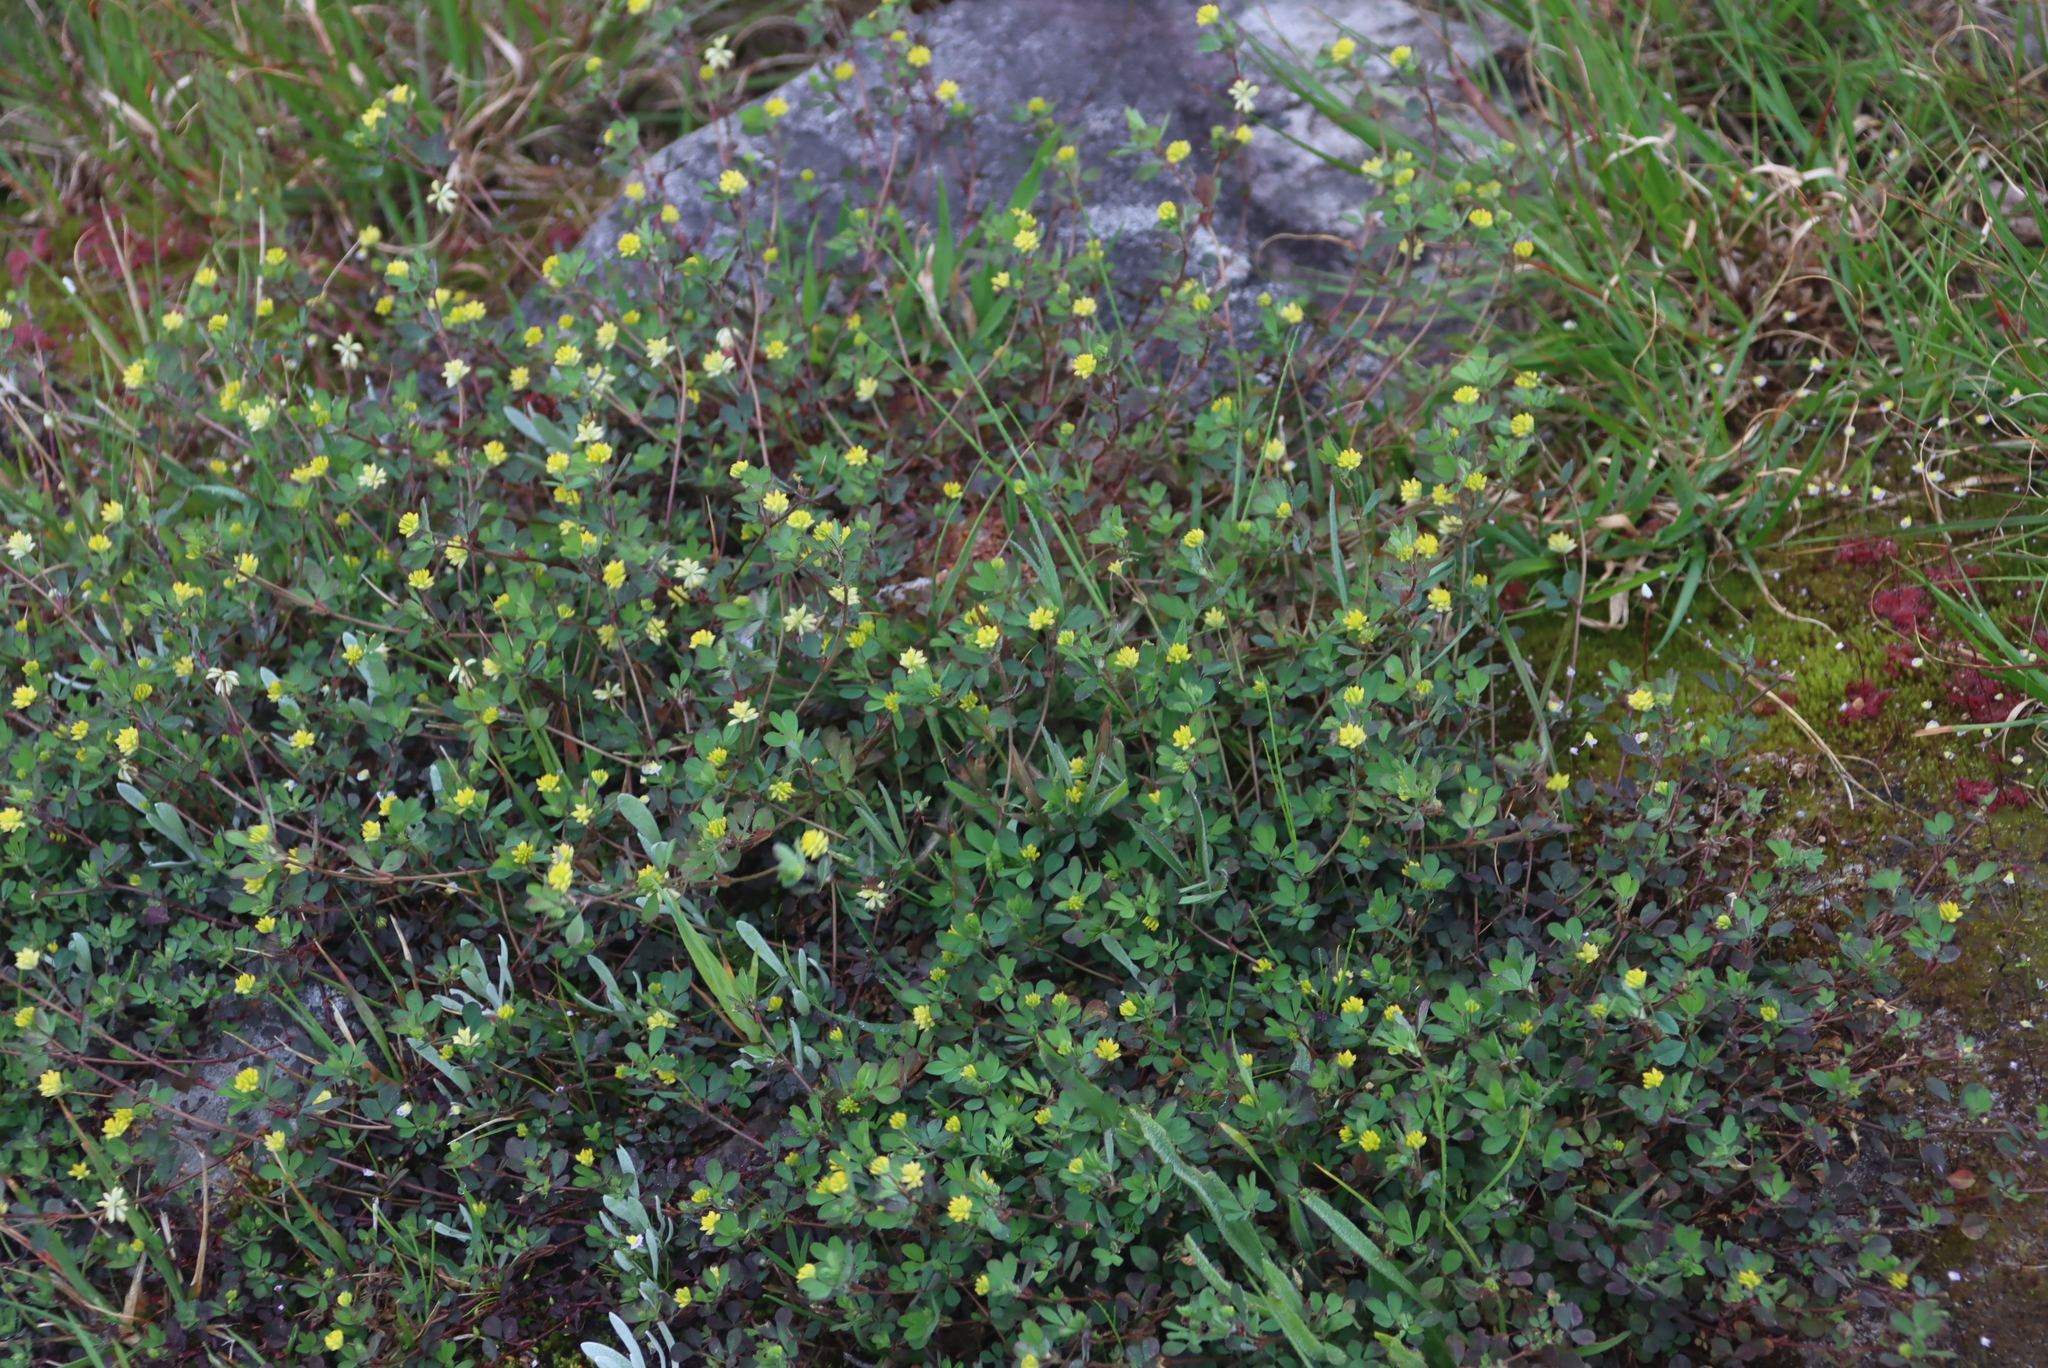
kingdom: Plantae
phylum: Tracheophyta
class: Magnoliopsida
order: Fabales
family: Fabaceae
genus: Trifolium
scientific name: Trifolium dubium
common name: Suckling clover
